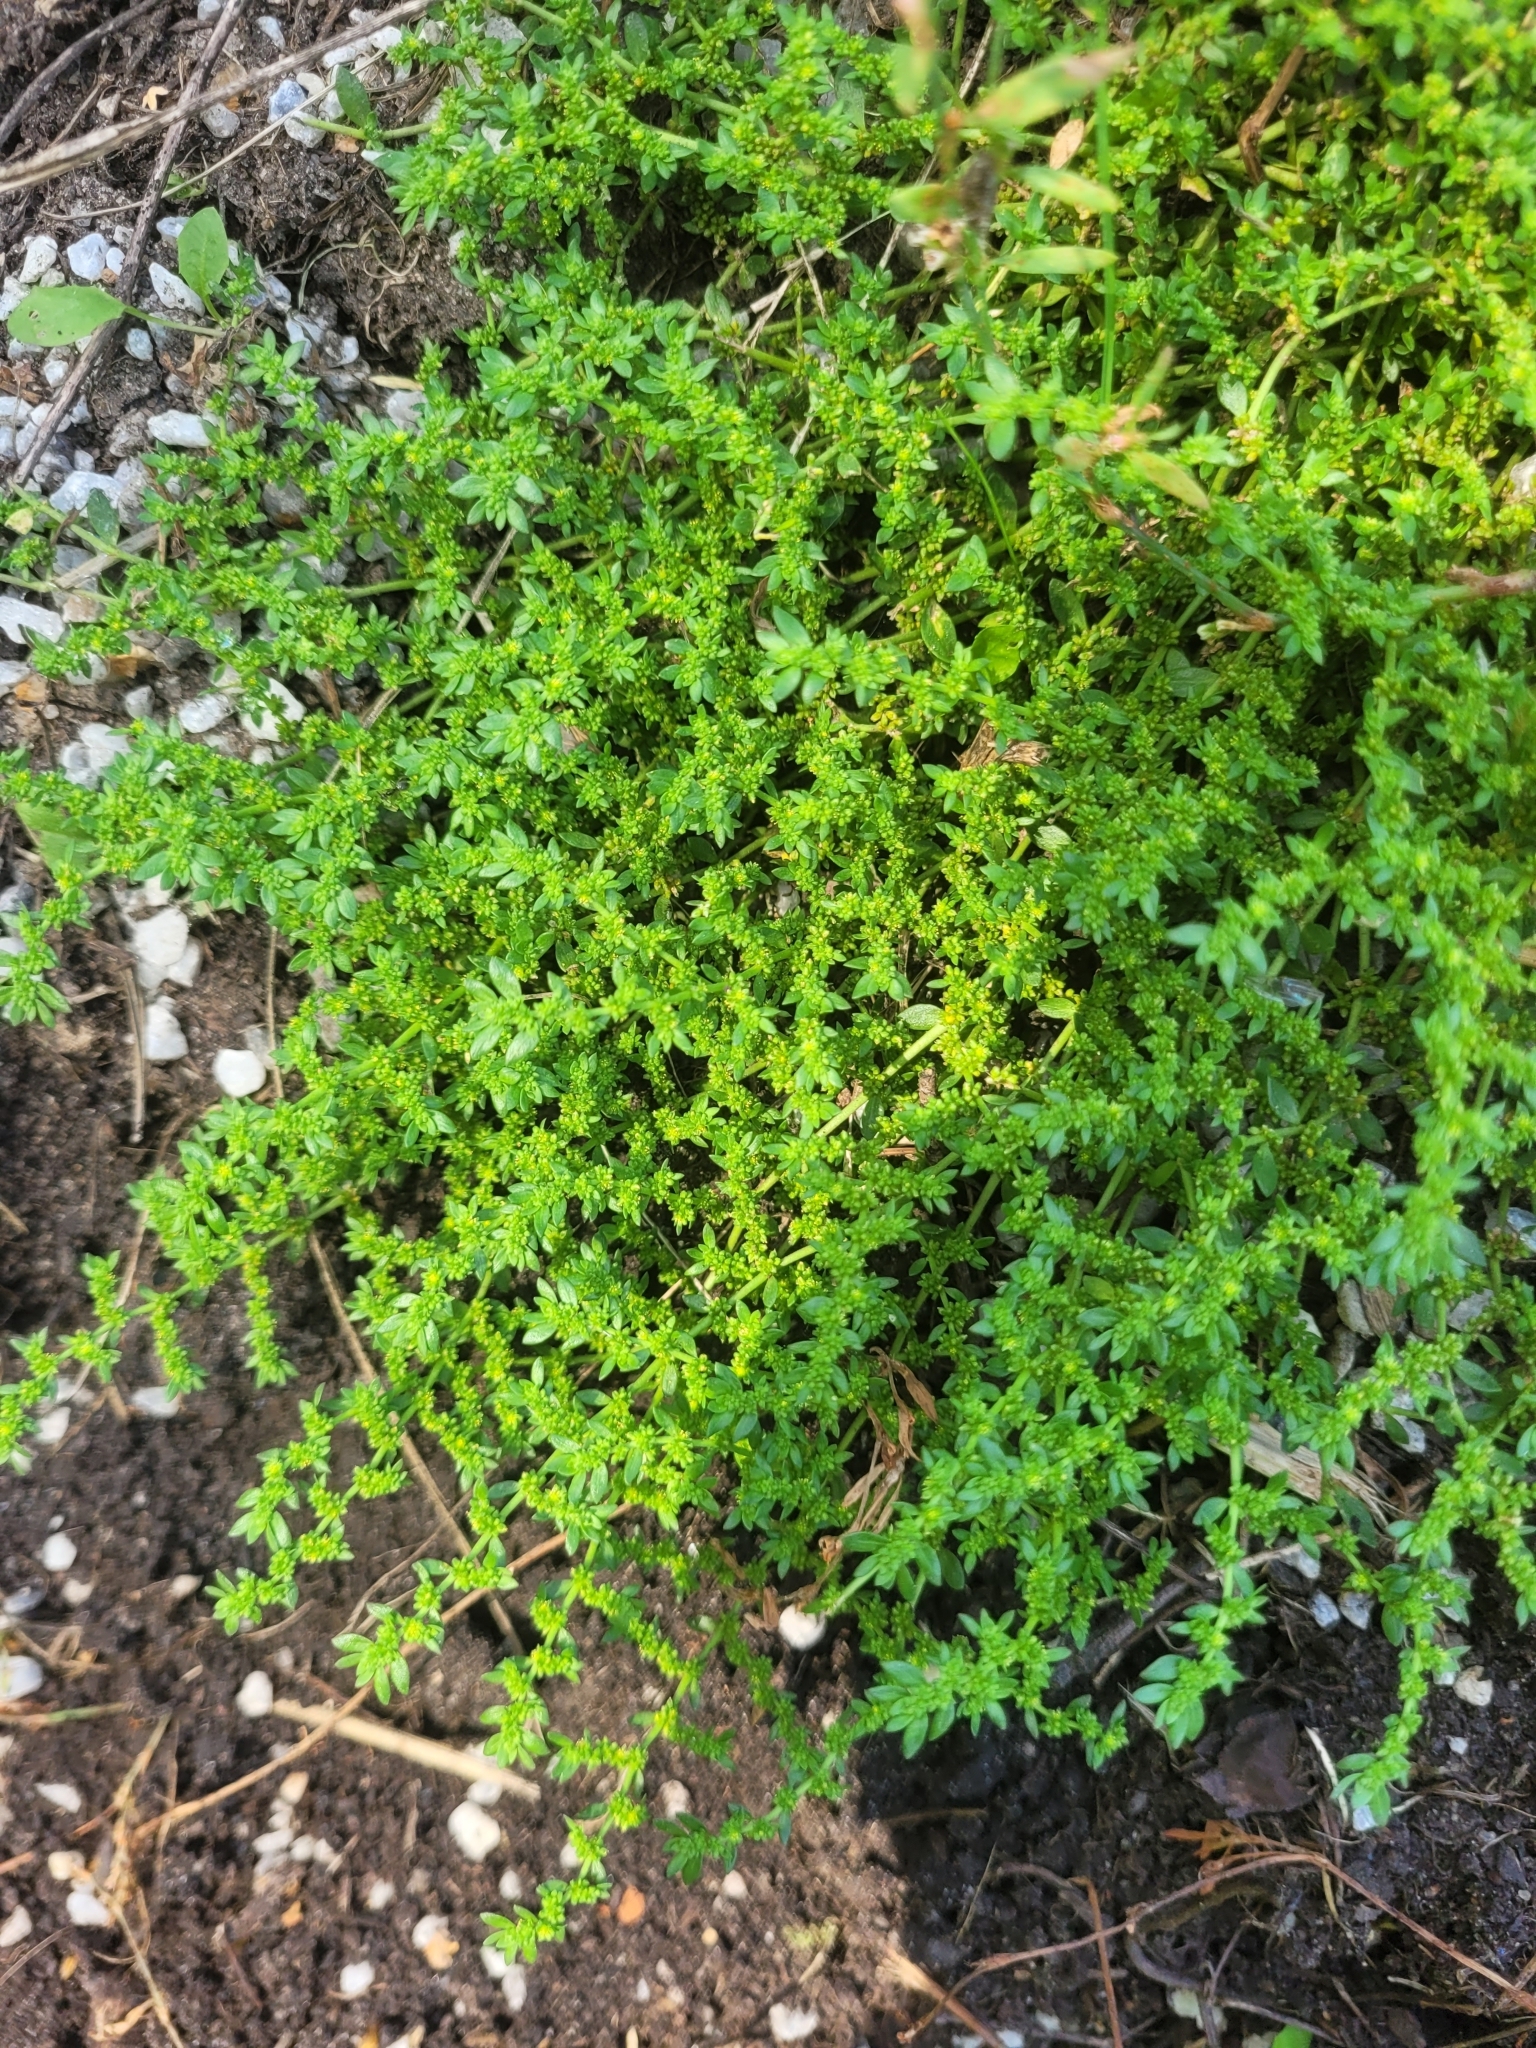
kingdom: Plantae
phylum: Tracheophyta
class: Magnoliopsida
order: Caryophyllales
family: Caryophyllaceae
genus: Herniaria
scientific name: Herniaria glabra
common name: Smooth rupturewort
